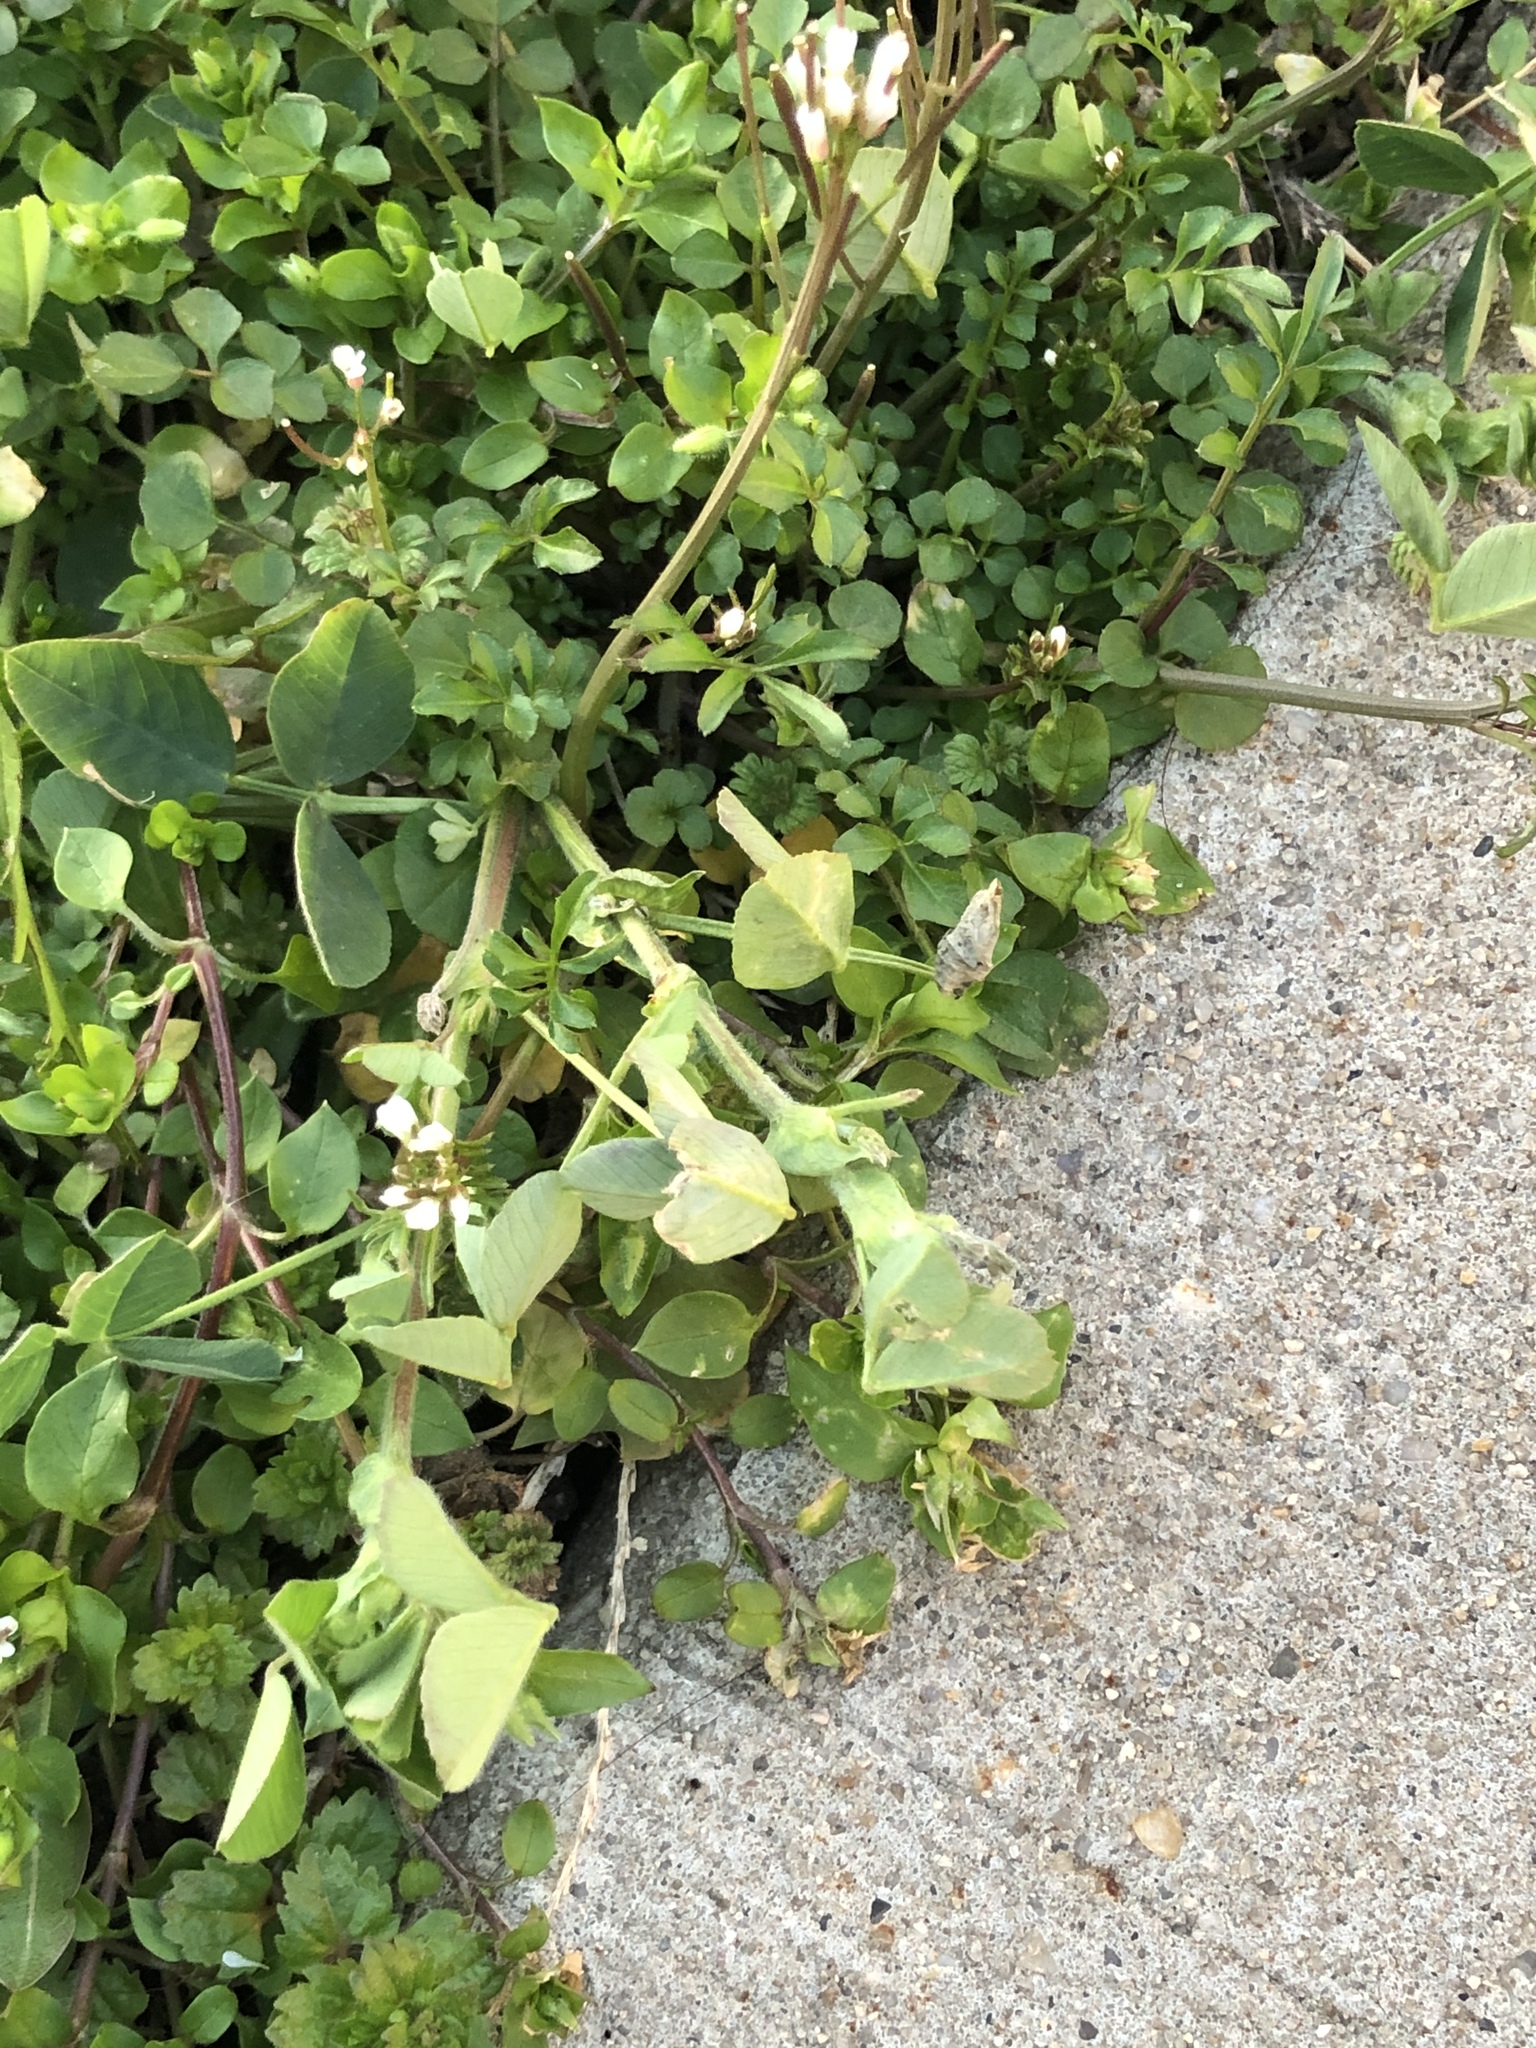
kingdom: Plantae
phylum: Tracheophyta
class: Magnoliopsida
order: Brassicales
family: Brassicaceae
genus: Cardamine
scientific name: Cardamine hirsuta
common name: Hairy bittercress
